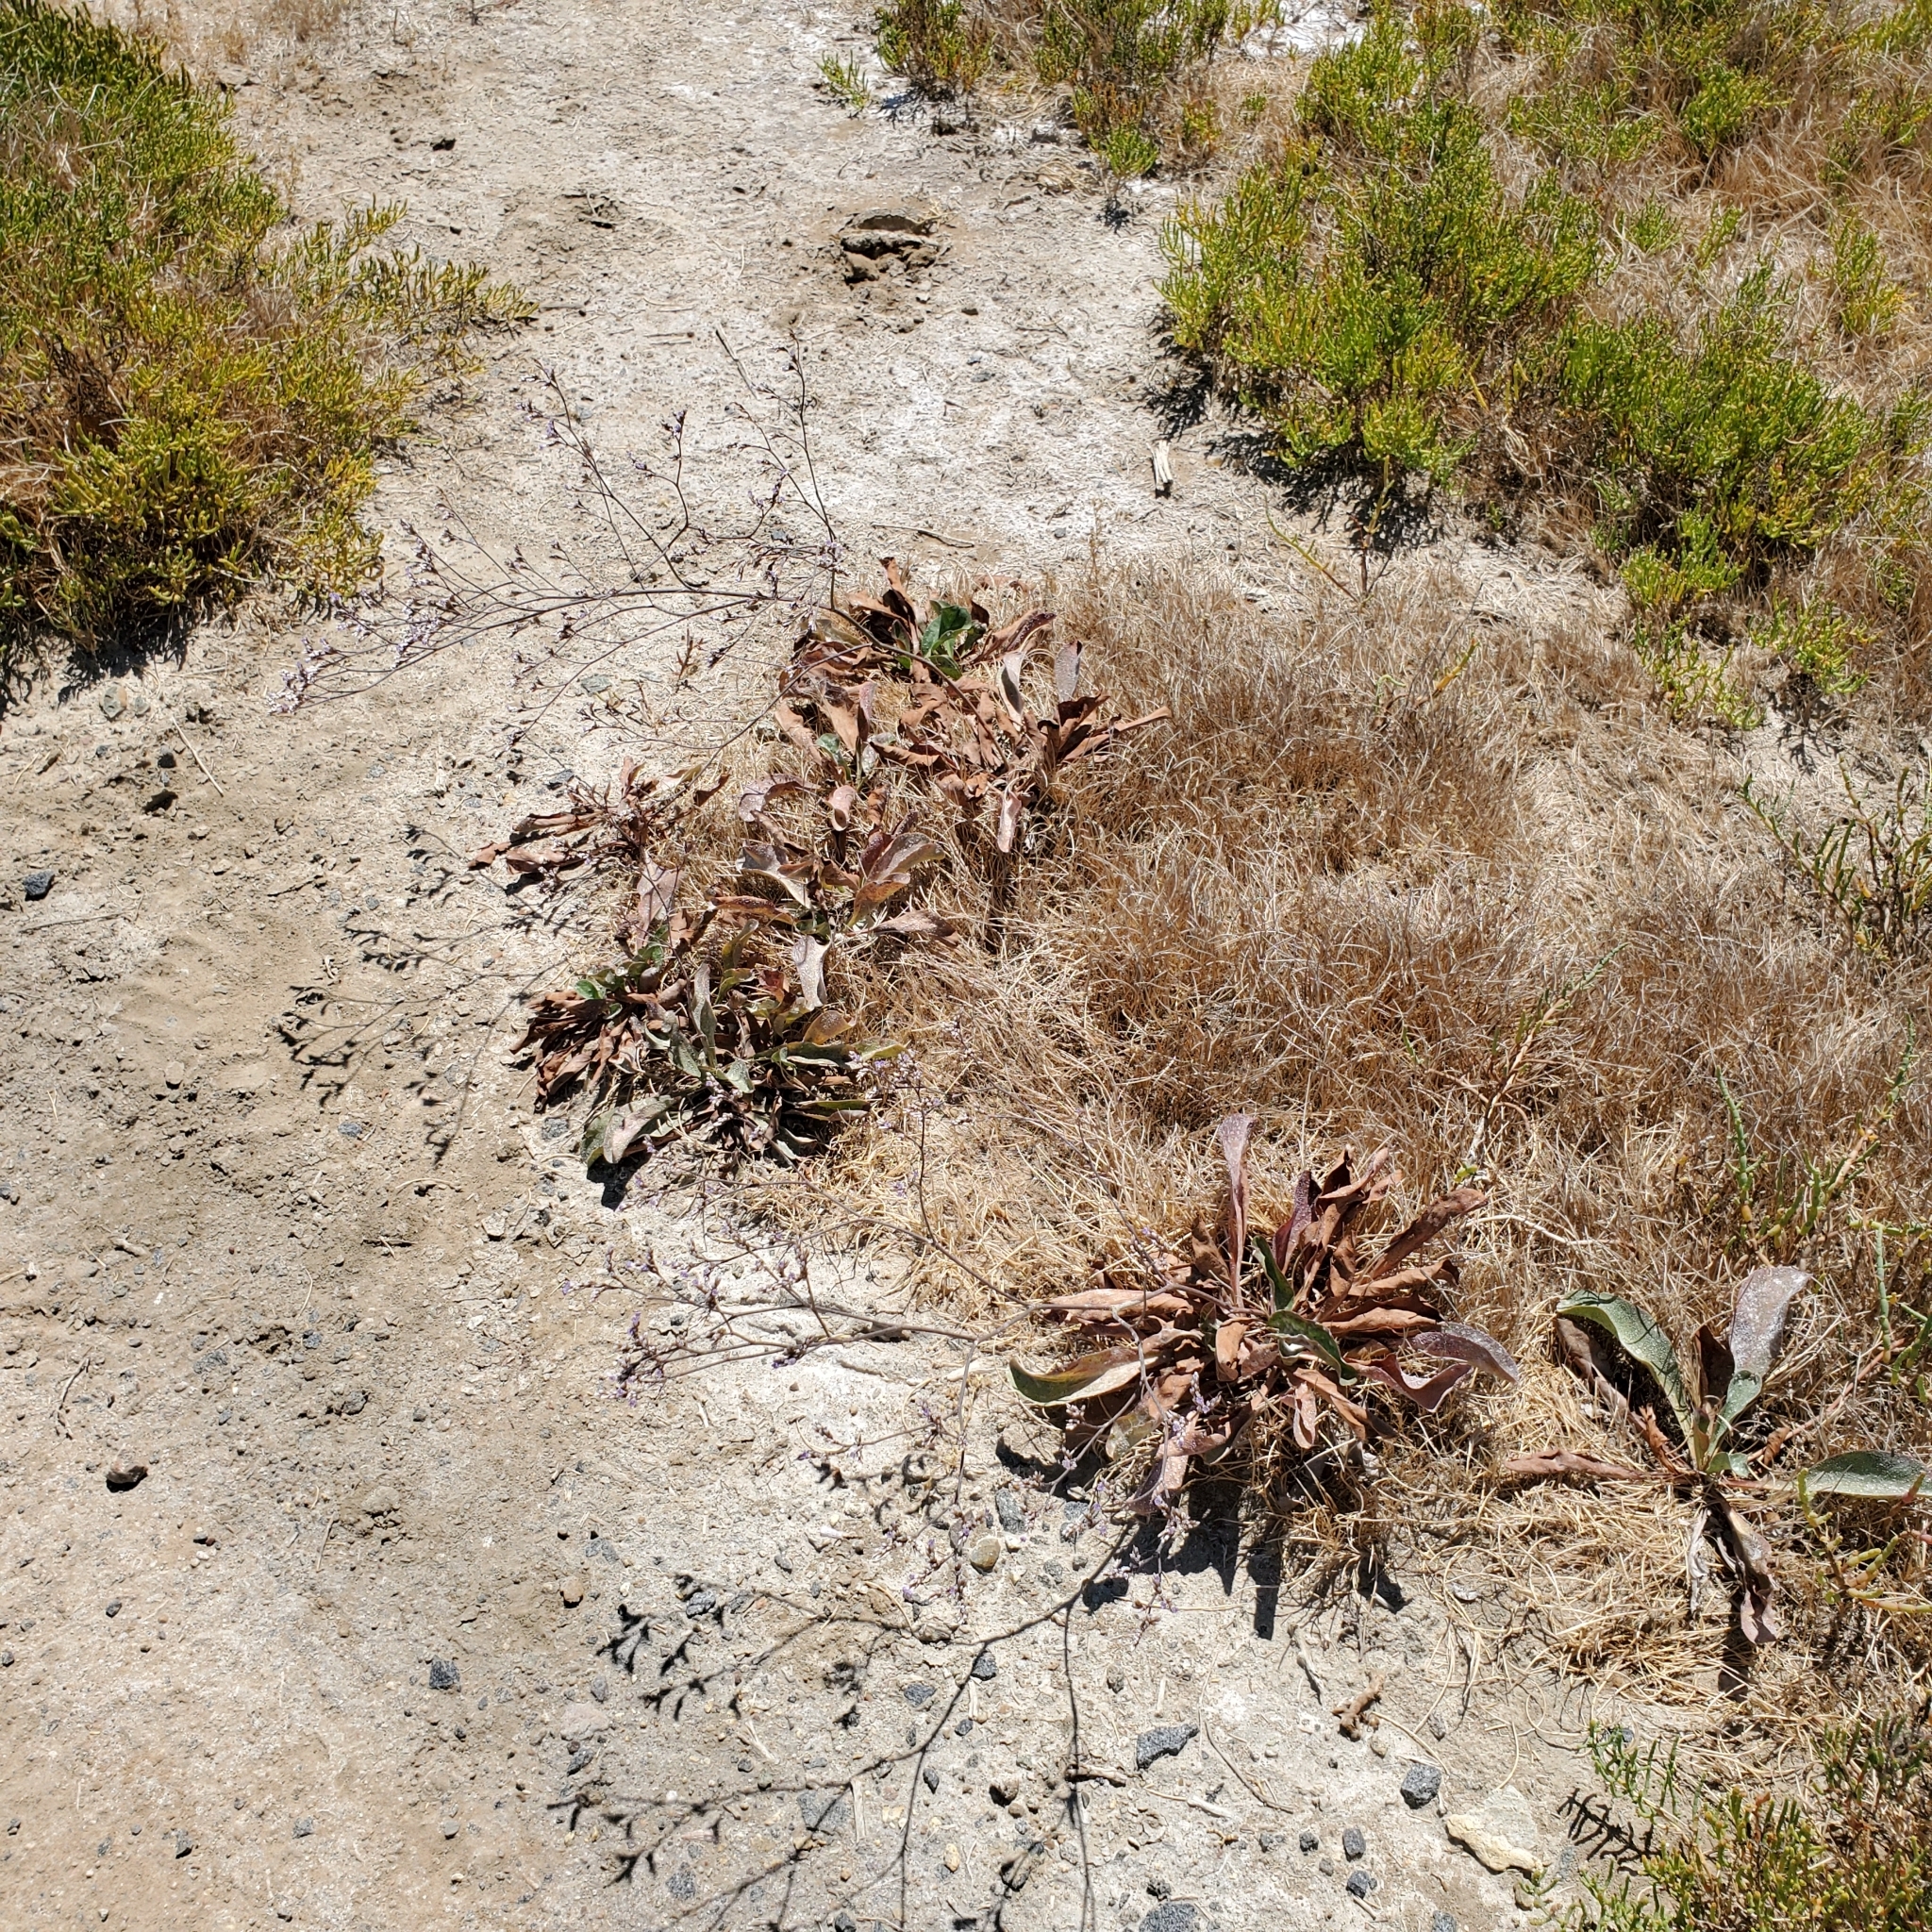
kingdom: Plantae
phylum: Tracheophyta
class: Magnoliopsida
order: Caryophyllales
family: Plumbaginaceae
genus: Limonium
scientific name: Limonium californicum
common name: Marsh-rosemary
